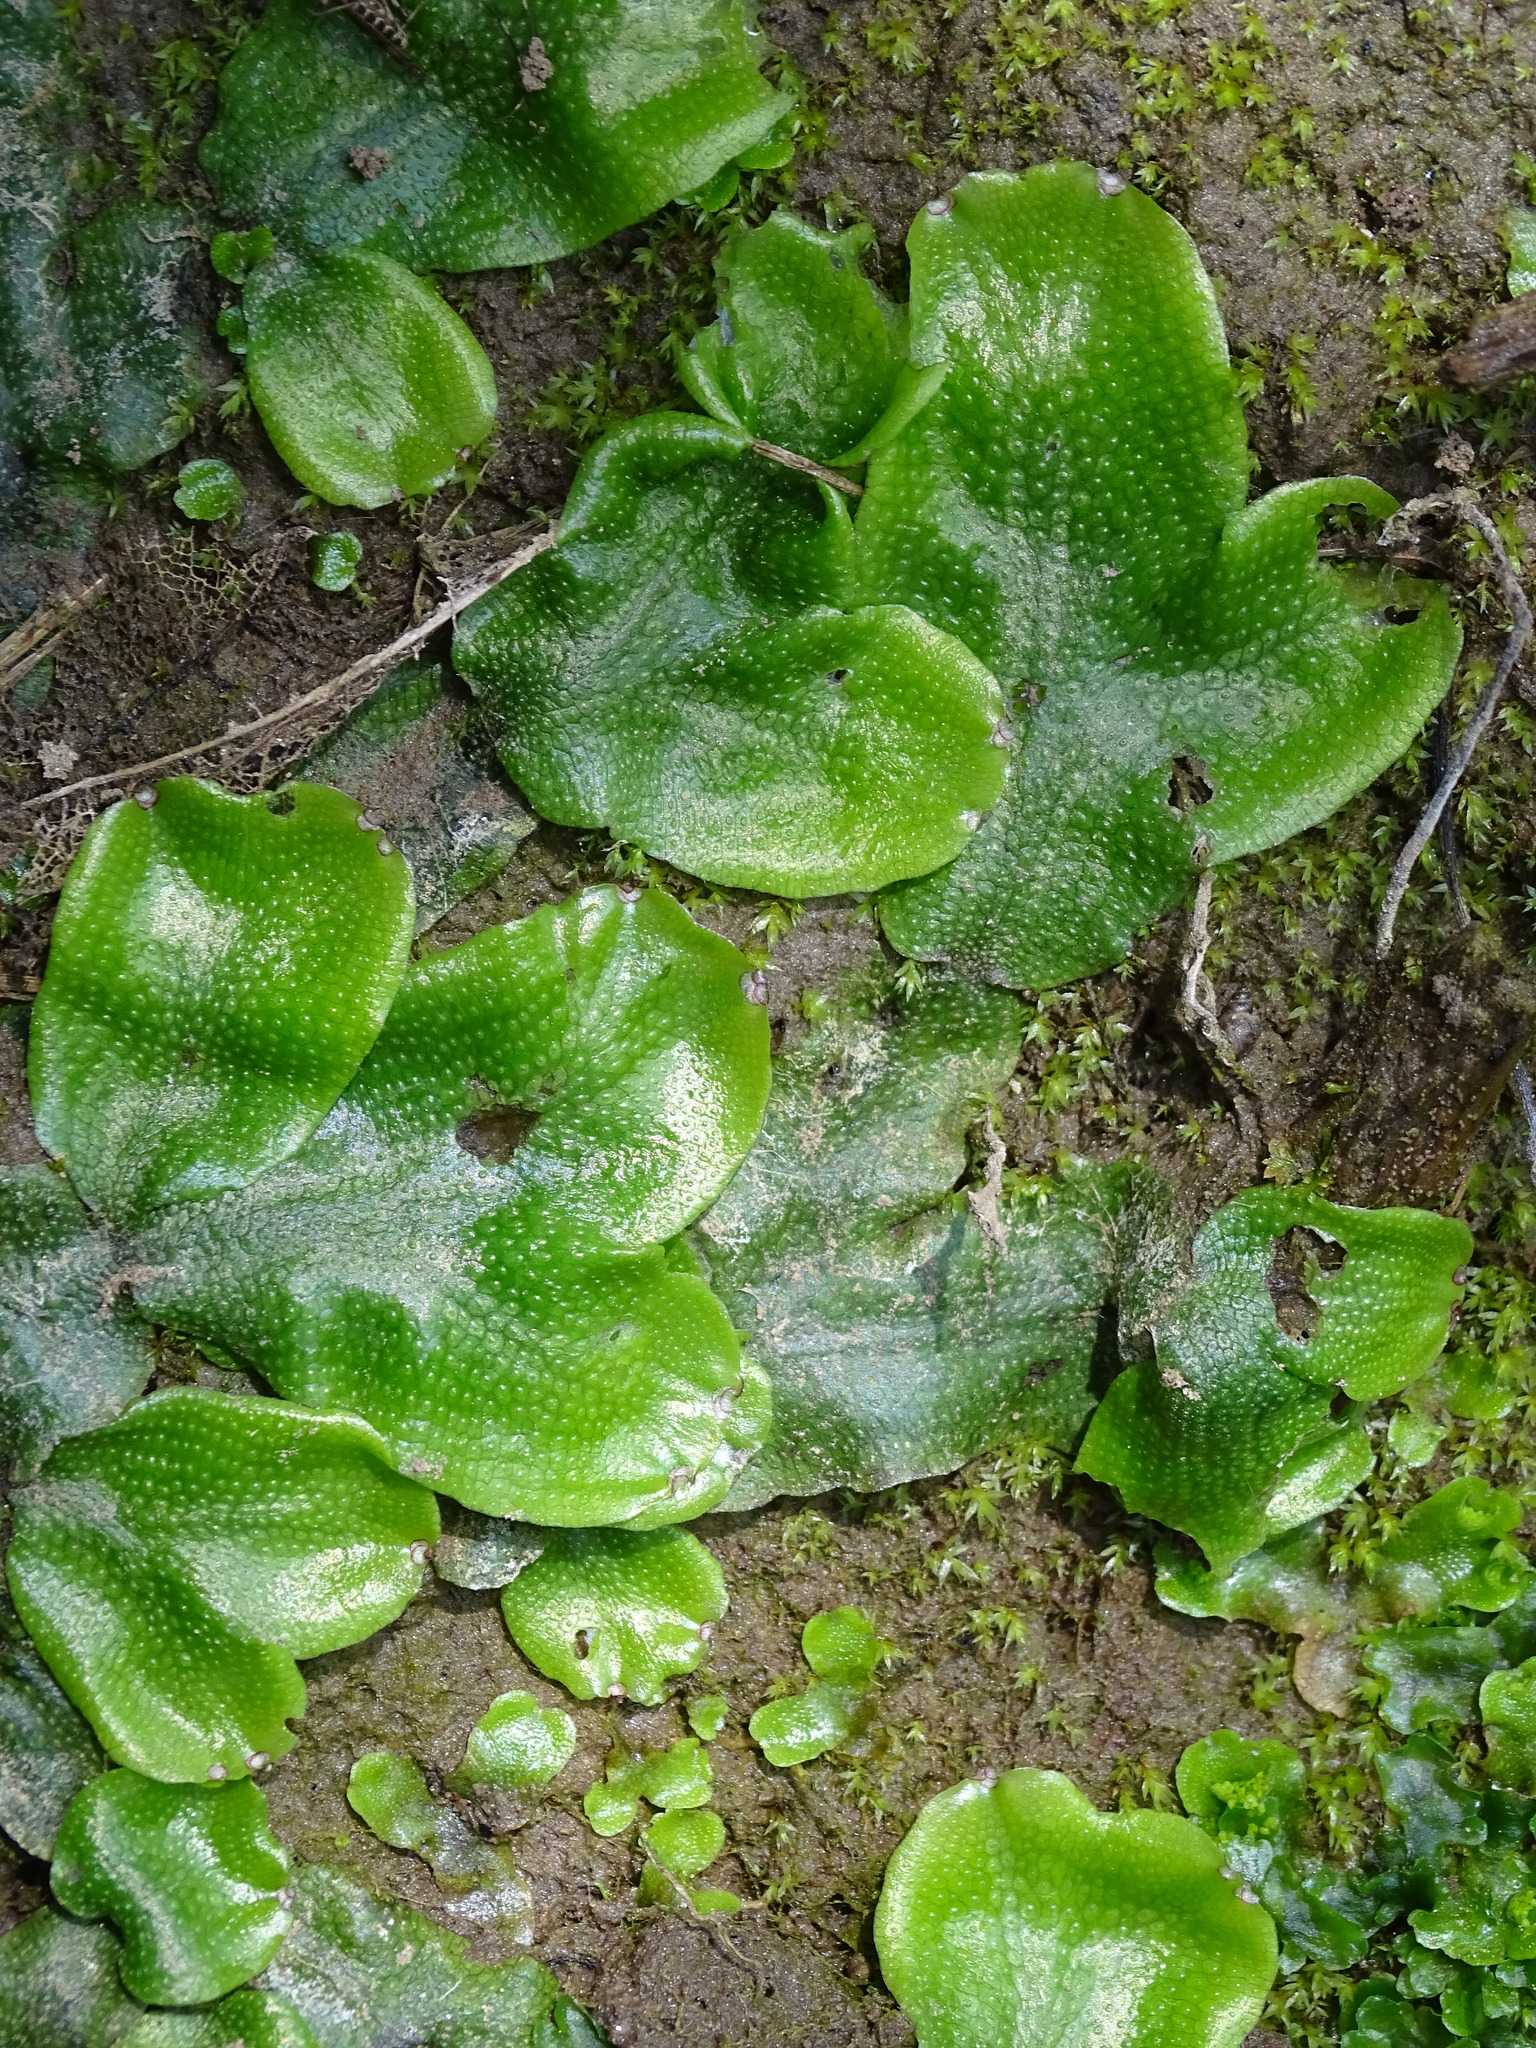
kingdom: Plantae
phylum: Marchantiophyta
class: Marchantiopsida
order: Marchantiales
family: Conocephalaceae
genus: Conocephalum
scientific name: Conocephalum conicum
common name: Great scented liverwort
